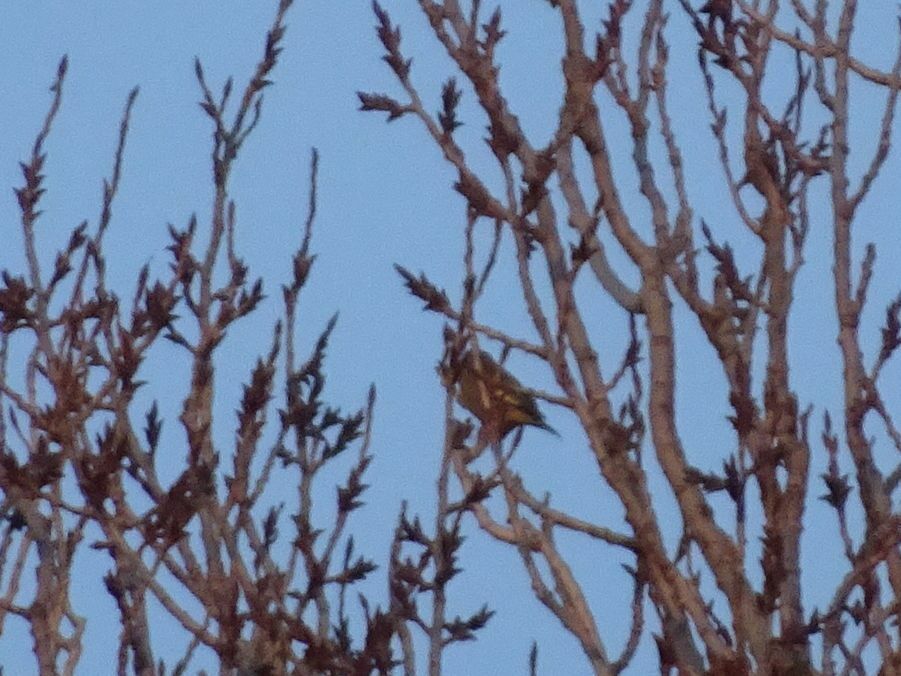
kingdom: Plantae
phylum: Tracheophyta
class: Liliopsida
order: Poales
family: Poaceae
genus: Chloris
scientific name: Chloris chloris
